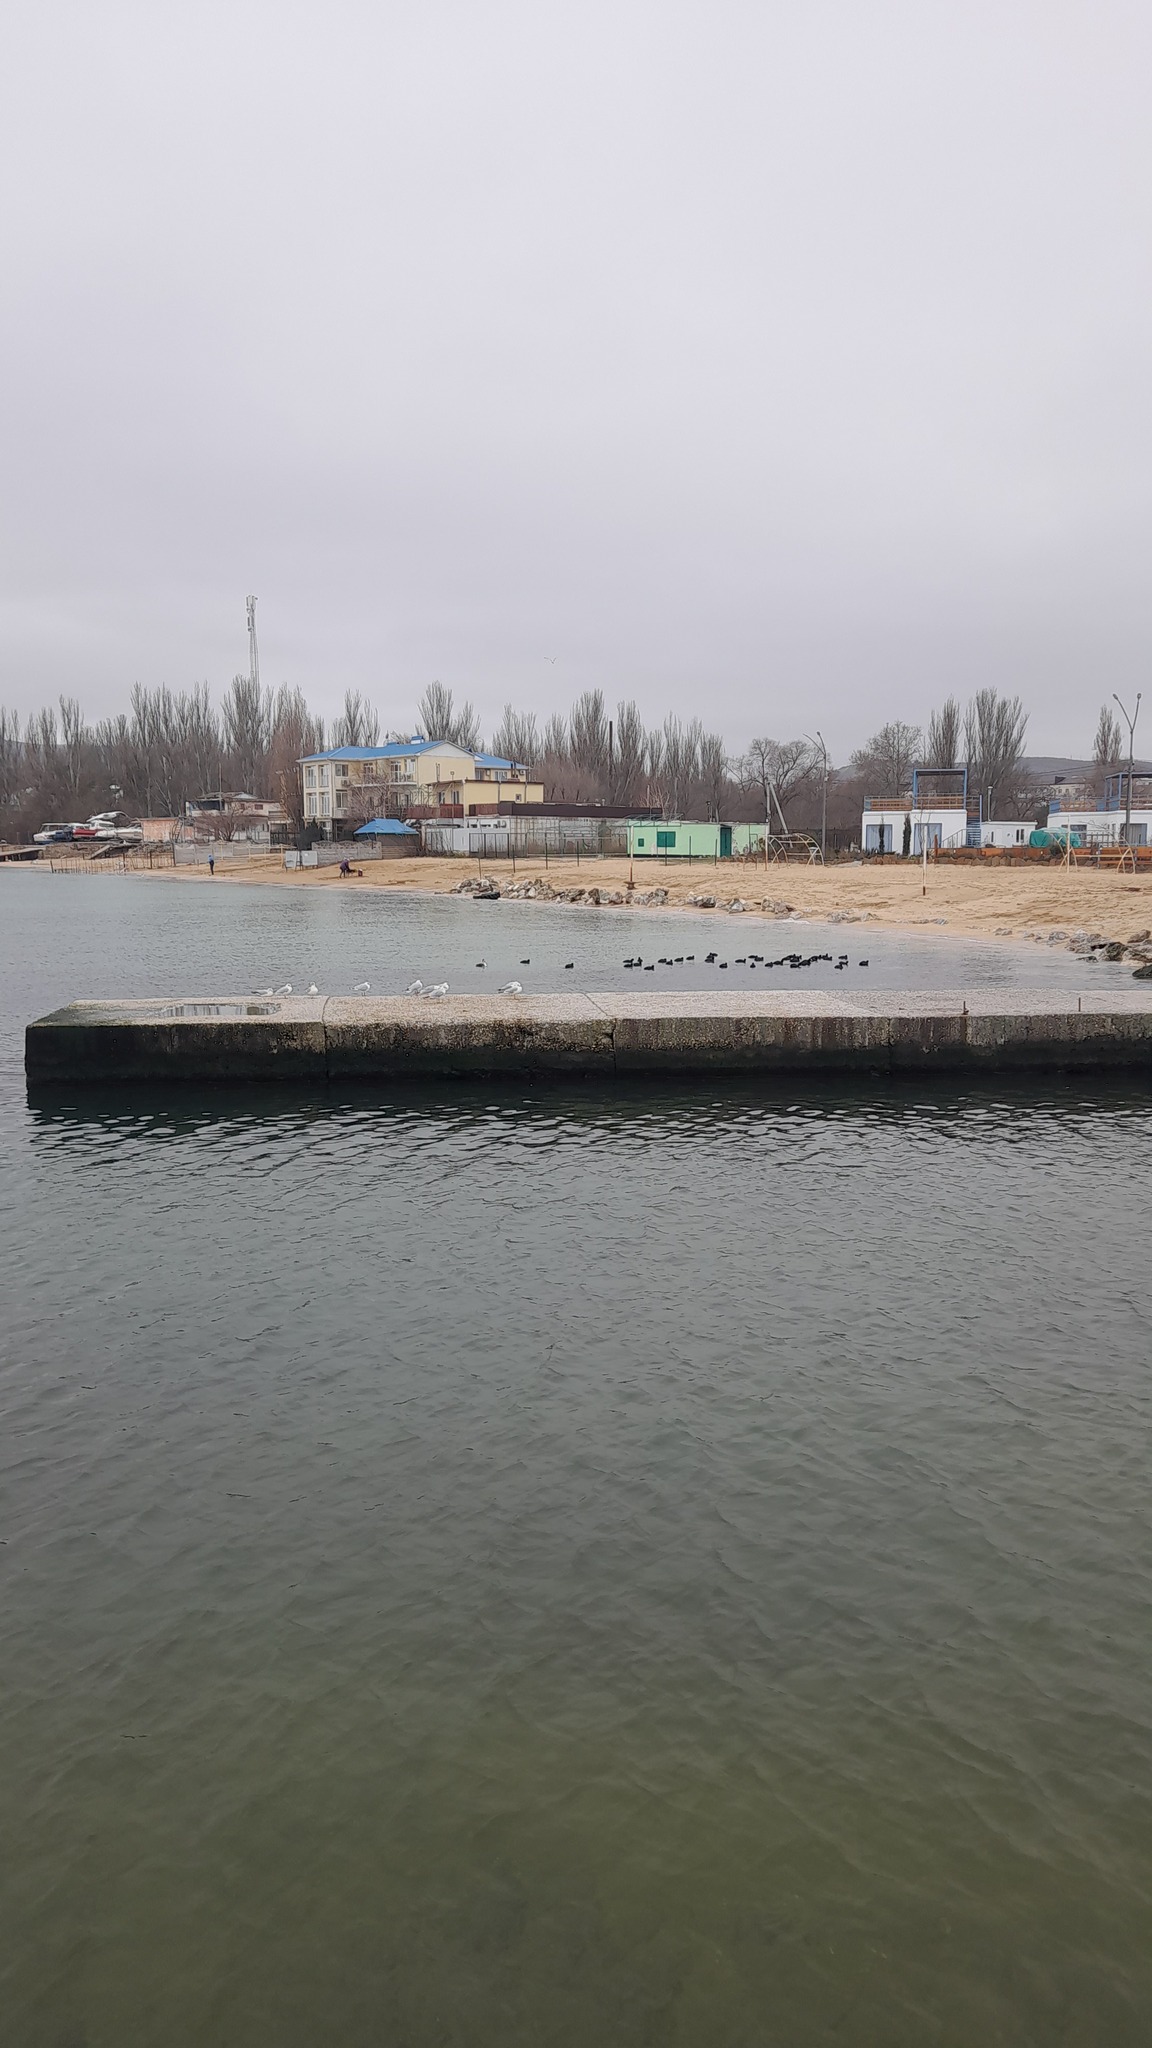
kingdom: Animalia
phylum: Chordata
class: Aves
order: Charadriiformes
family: Laridae
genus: Chroicocephalus
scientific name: Chroicocephalus ridibundus
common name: Black-headed gull
